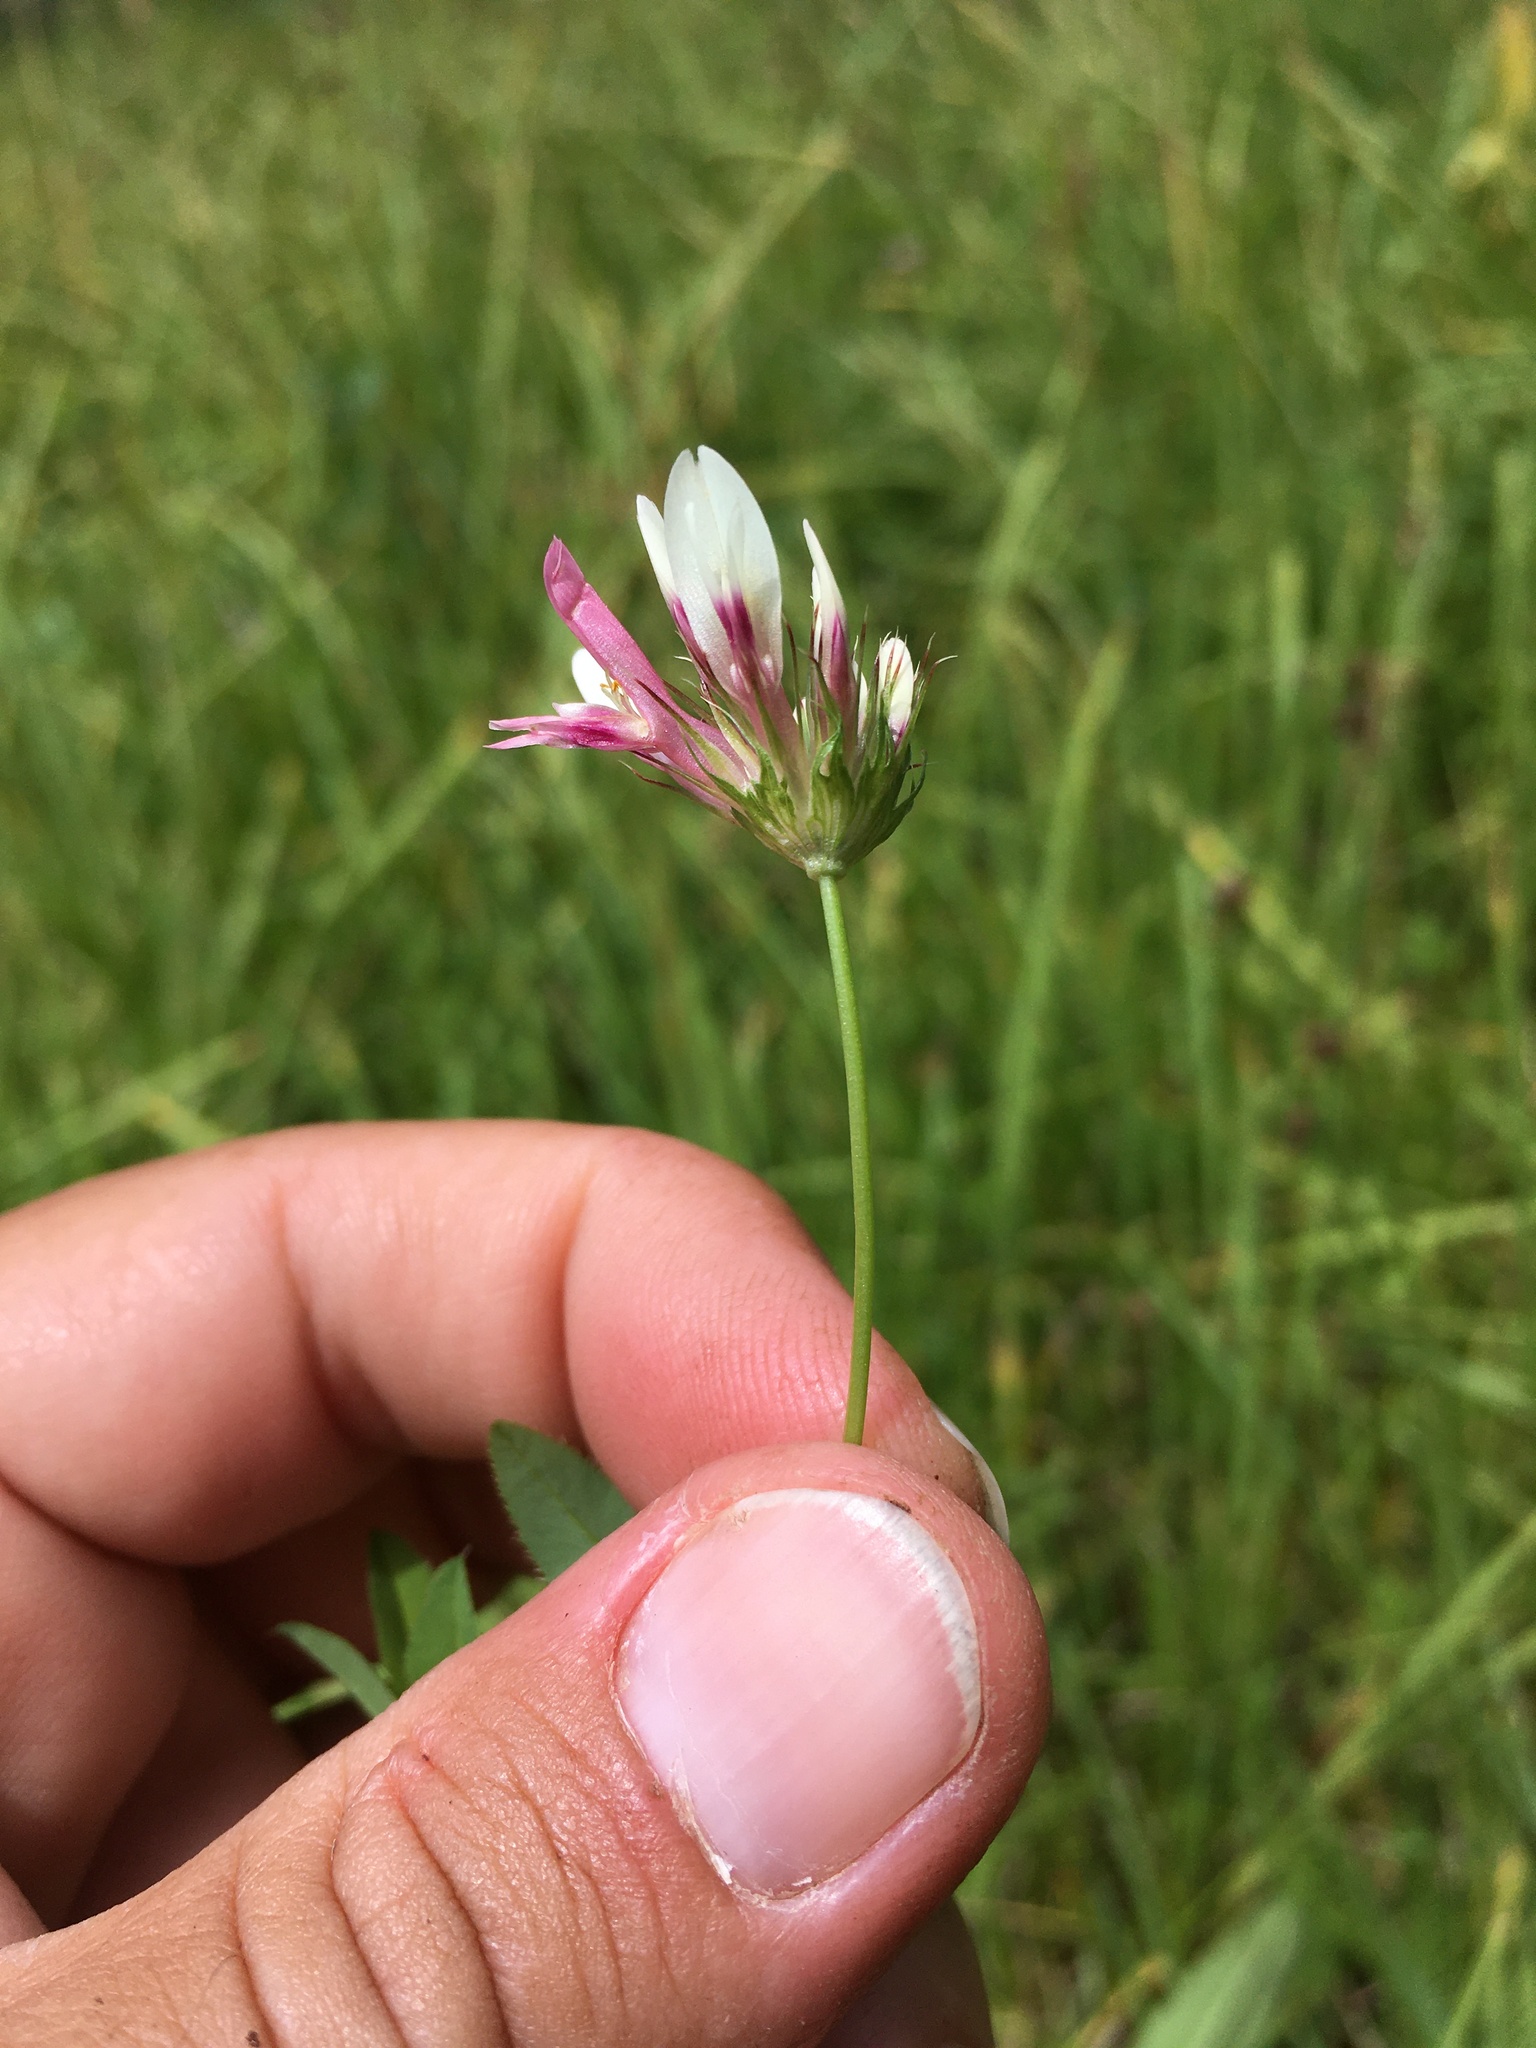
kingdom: Plantae
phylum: Tracheophyta
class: Magnoliopsida
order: Fabales
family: Fabaceae
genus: Trifolium
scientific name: Trifolium wormskioldii
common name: Springbank clover
